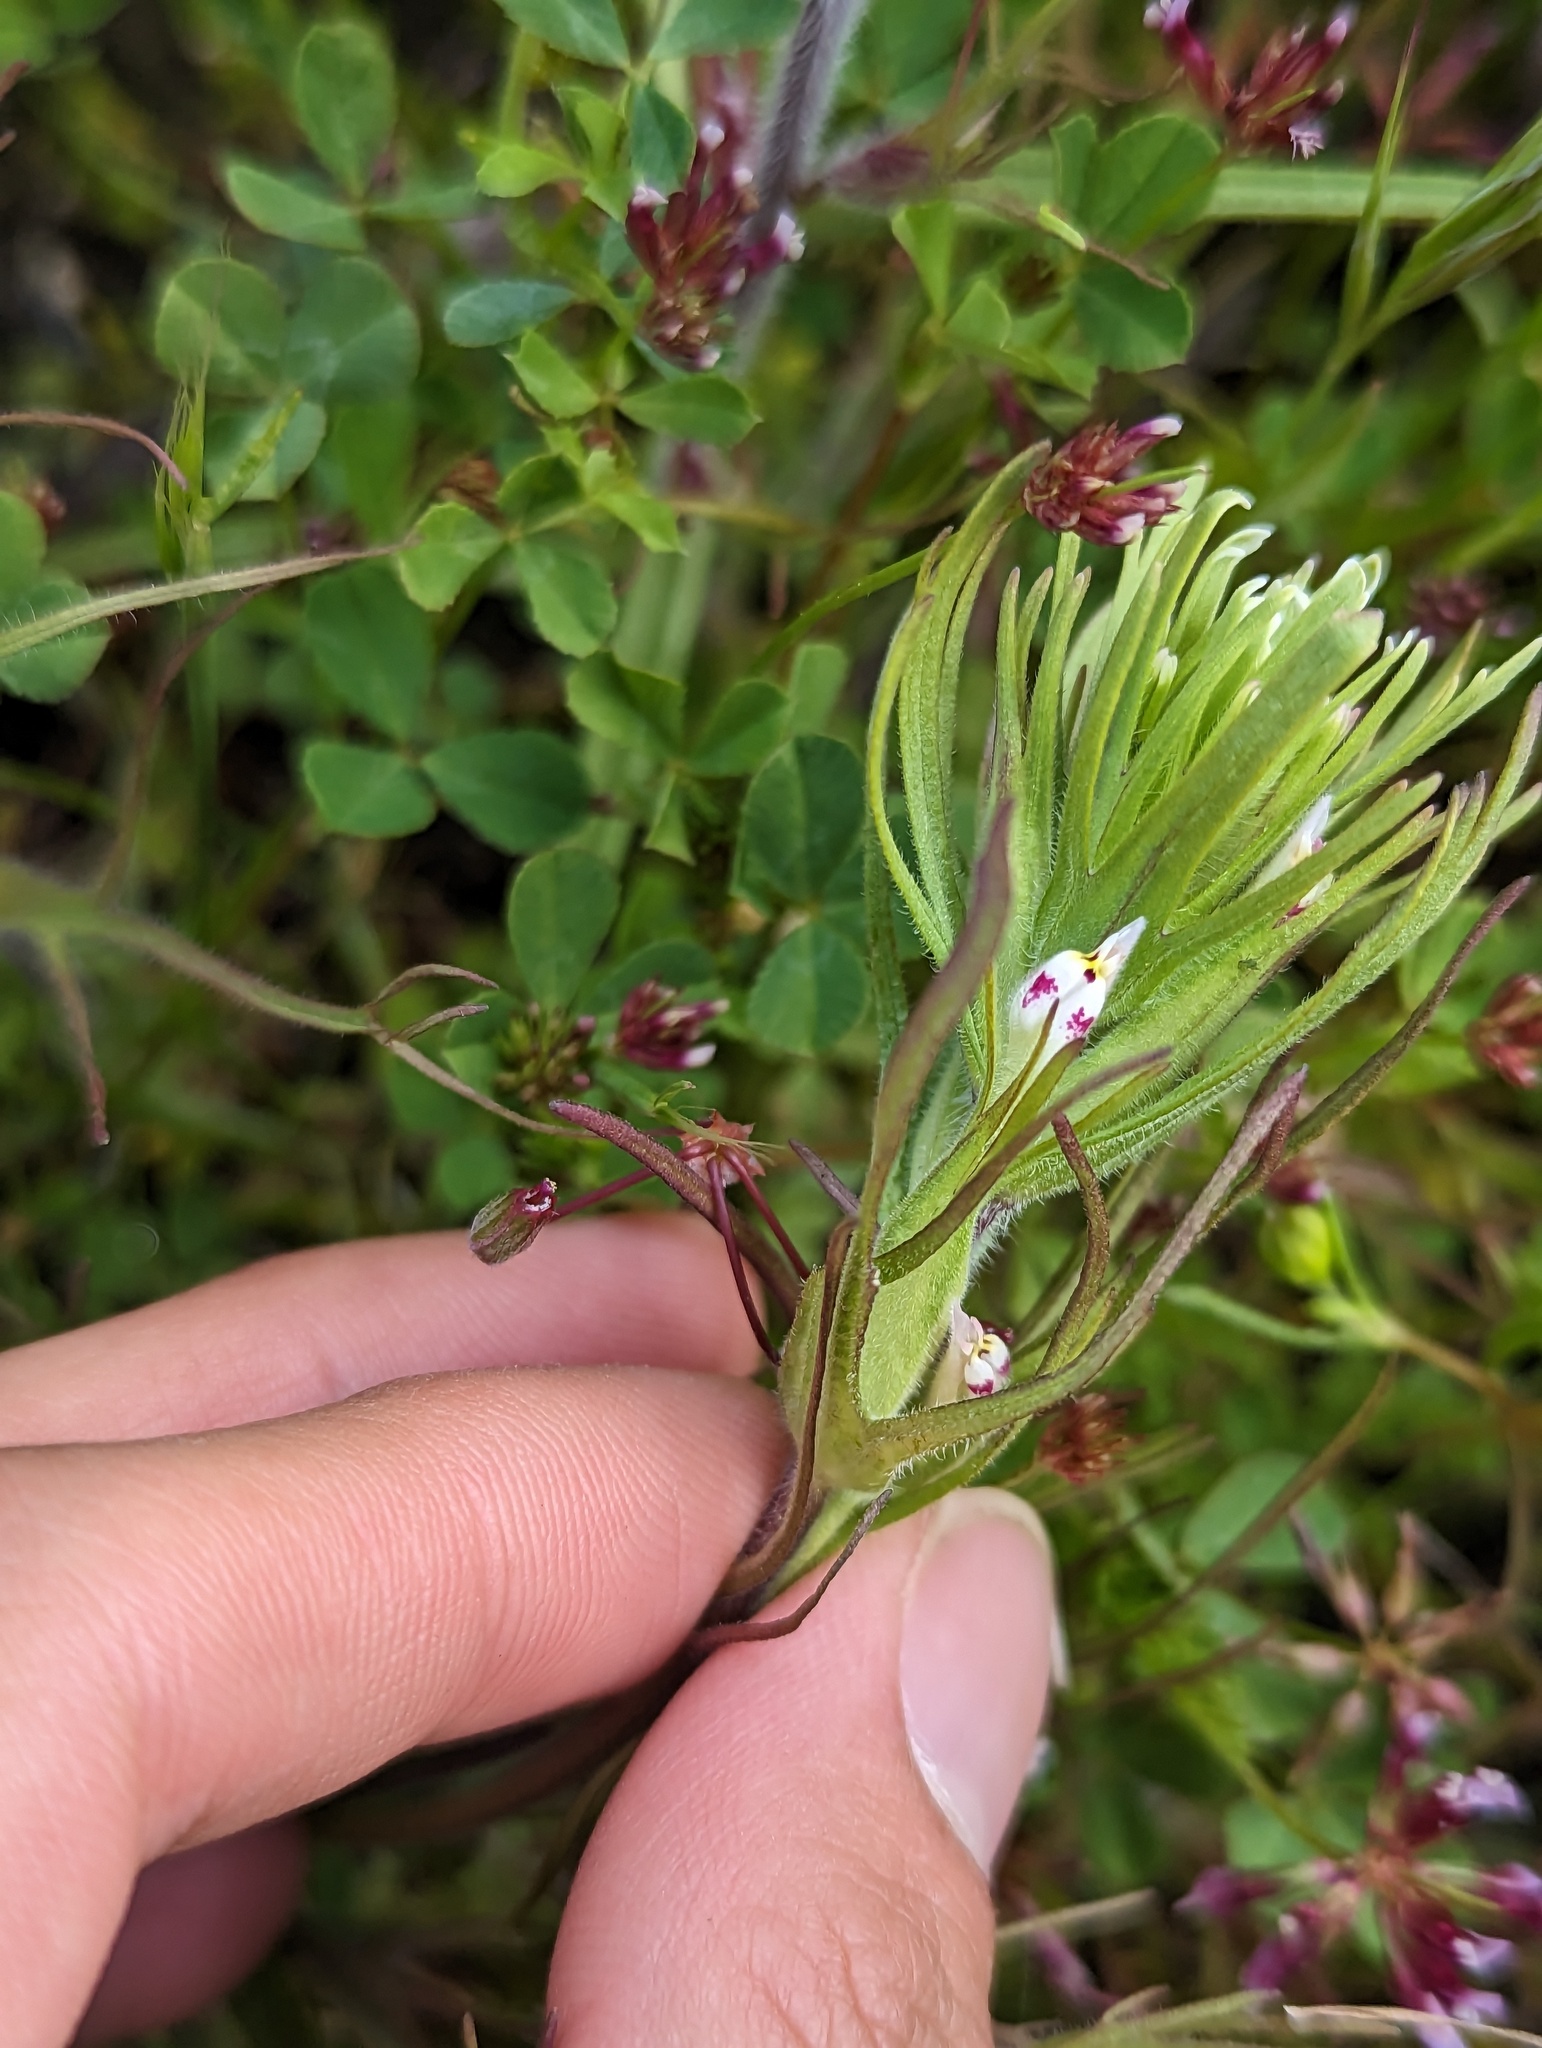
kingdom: Plantae
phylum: Tracheophyta
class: Magnoliopsida
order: Lamiales
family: Orobanchaceae
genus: Castilleja
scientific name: Castilleja attenuata
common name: Valley tassels
